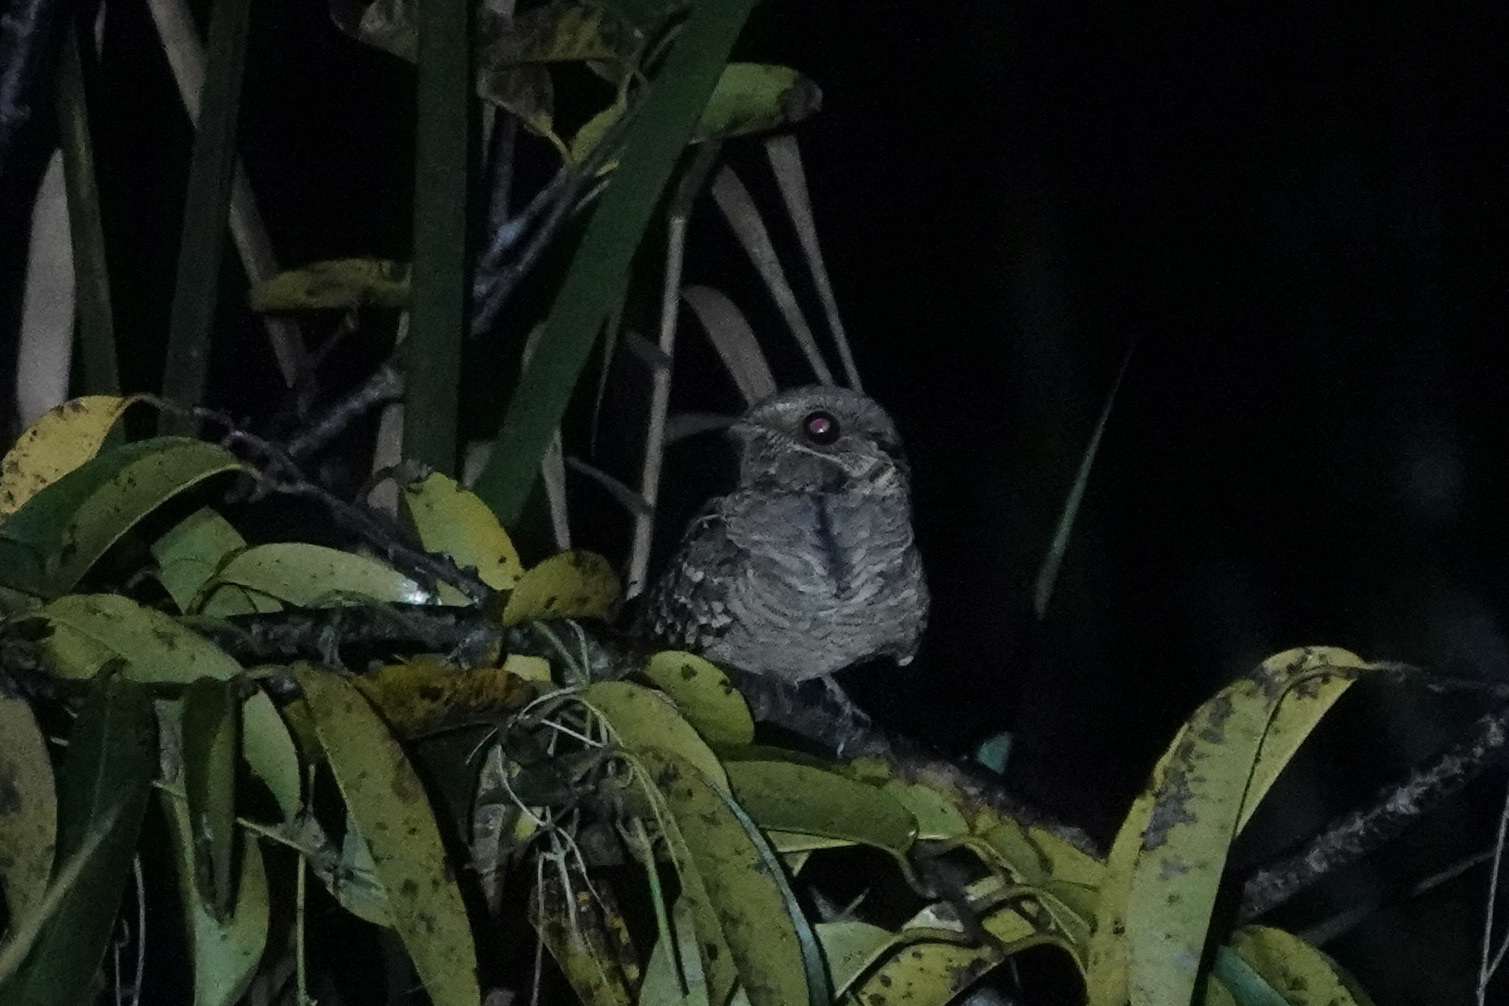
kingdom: Animalia
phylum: Chordata
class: Aves
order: Caprimulgiformes
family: Caprimulgidae
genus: Nyctidromus
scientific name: Nyctidromus albicollis
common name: Pauraque
